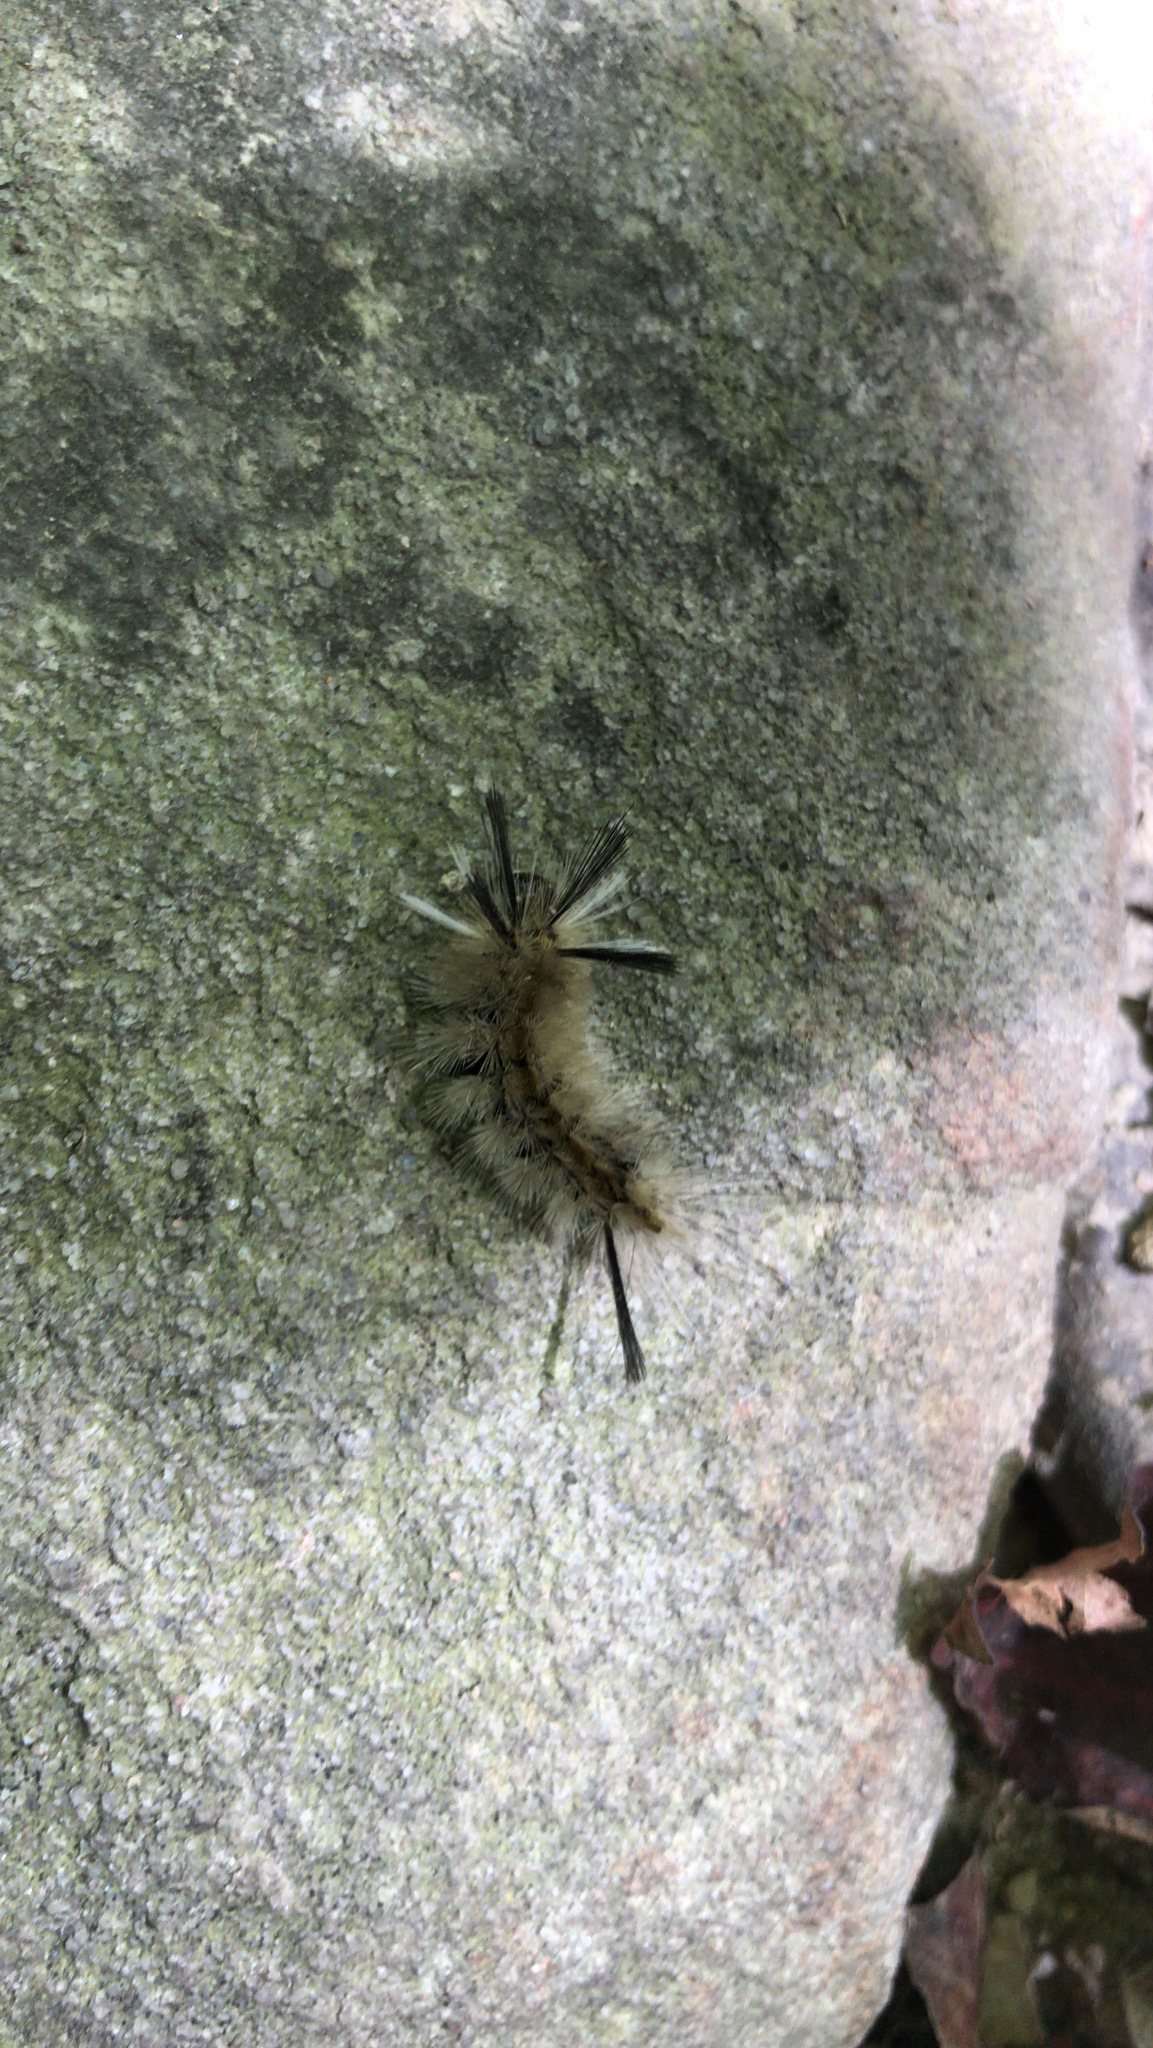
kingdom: Animalia
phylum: Arthropoda
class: Insecta
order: Lepidoptera
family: Erebidae
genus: Halysidota
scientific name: Halysidota tessellaris
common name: Banded tussock moth
